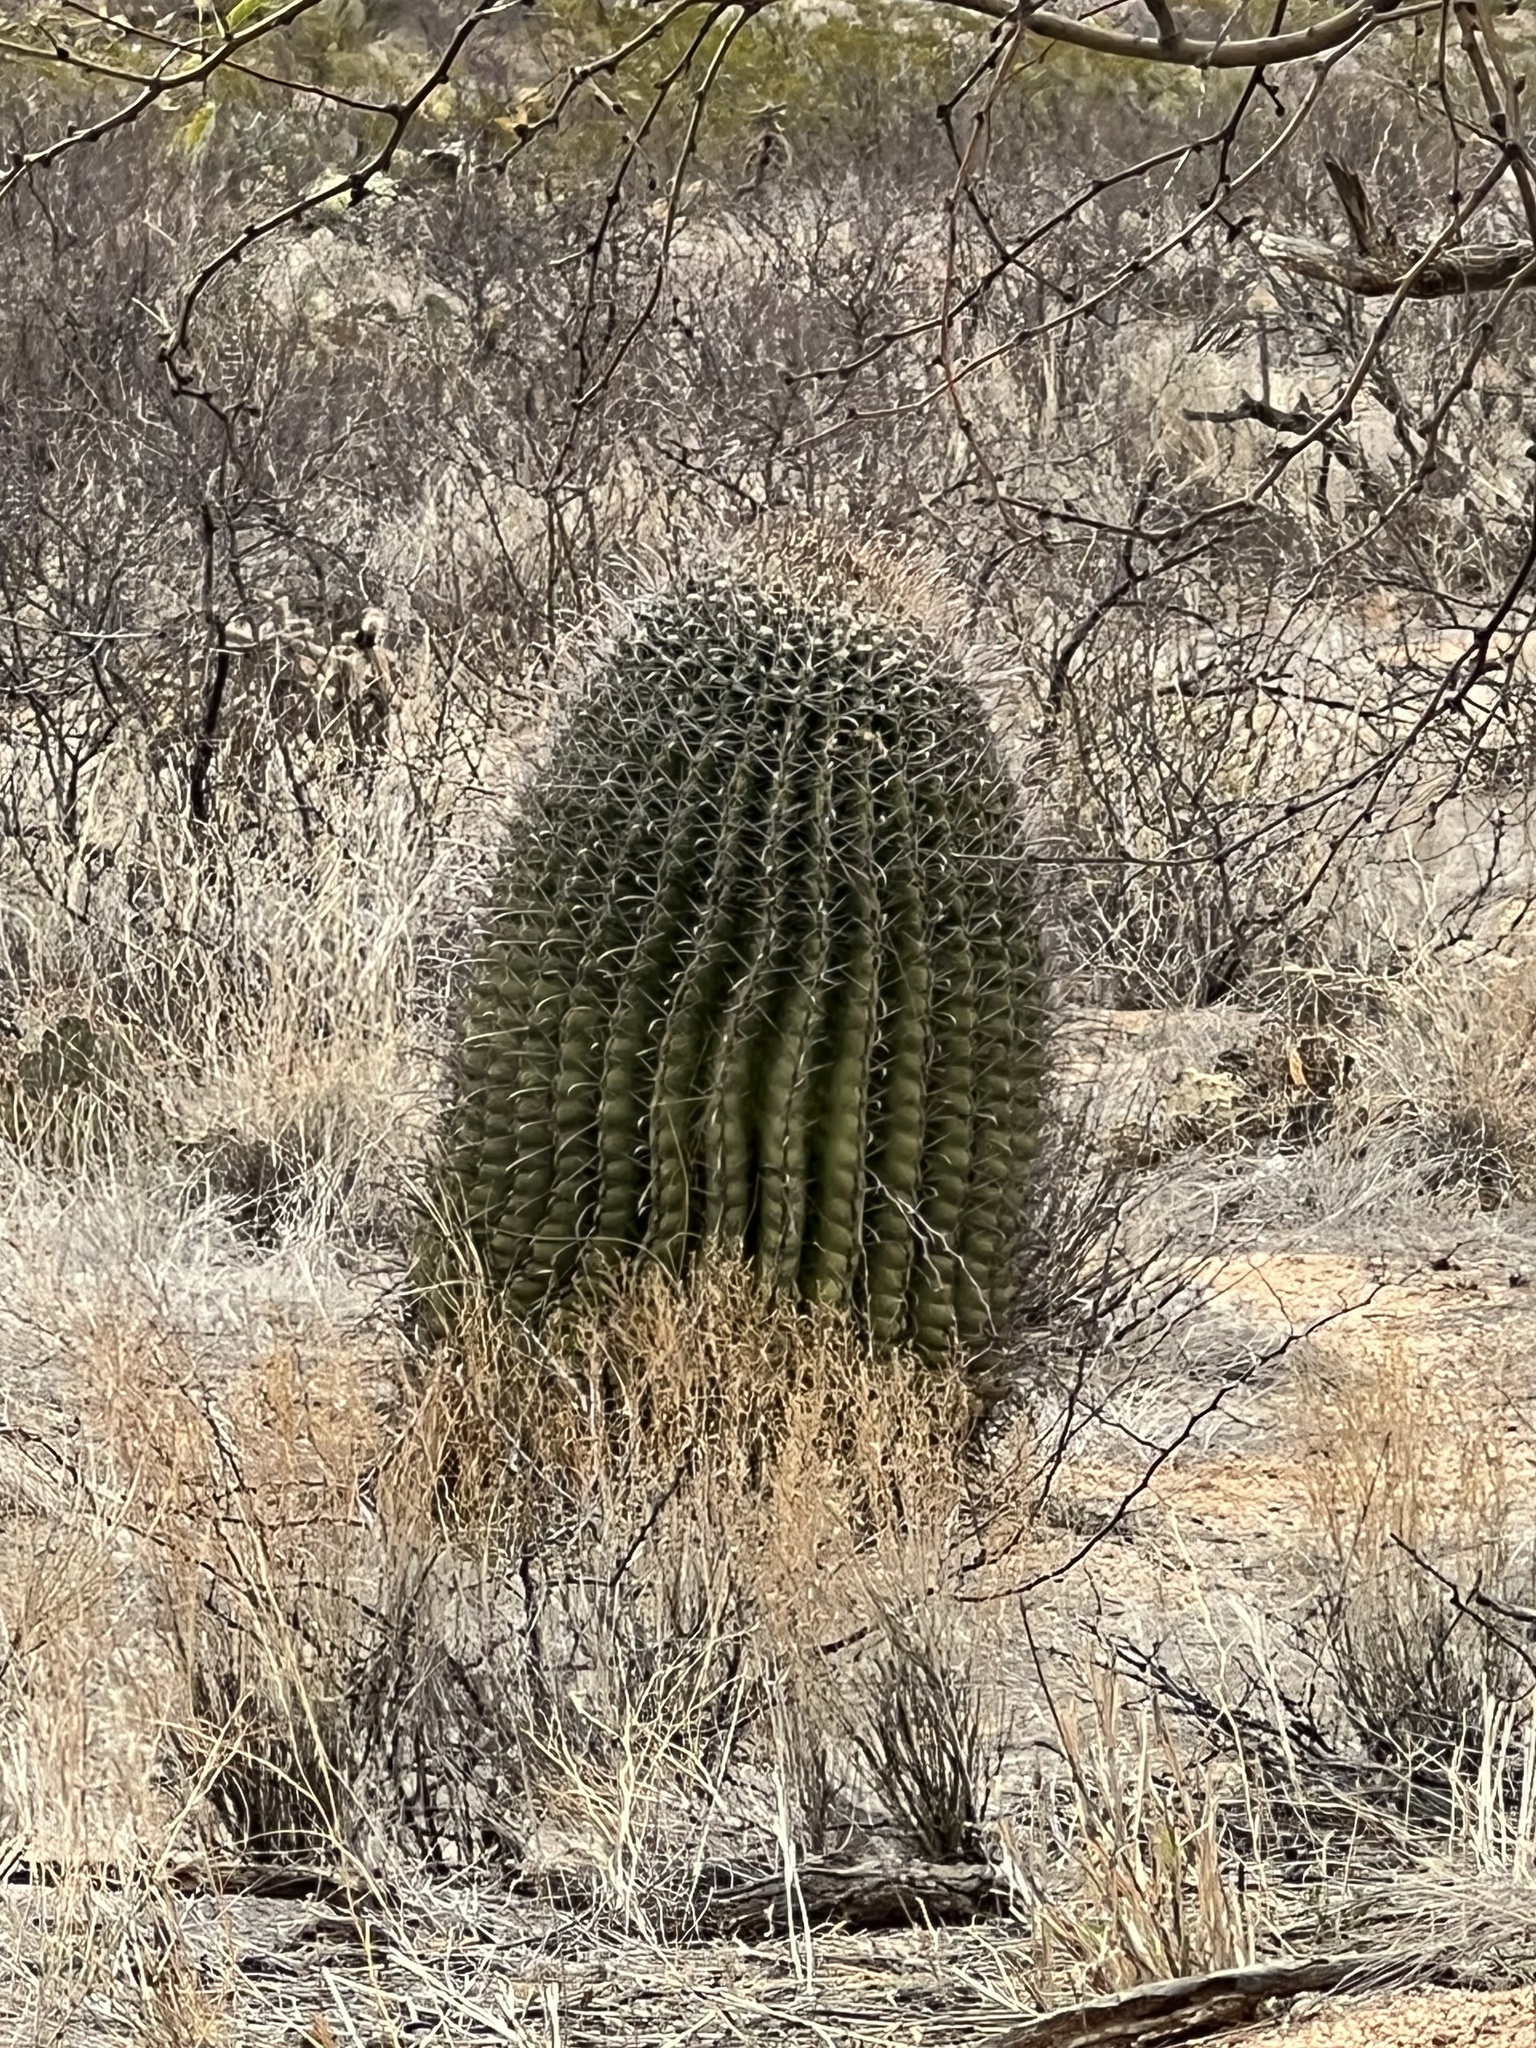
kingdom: Plantae
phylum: Tracheophyta
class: Magnoliopsida
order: Caryophyllales
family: Cactaceae
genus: Ferocactus
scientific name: Ferocactus wislizeni
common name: Candy barrel cactus
